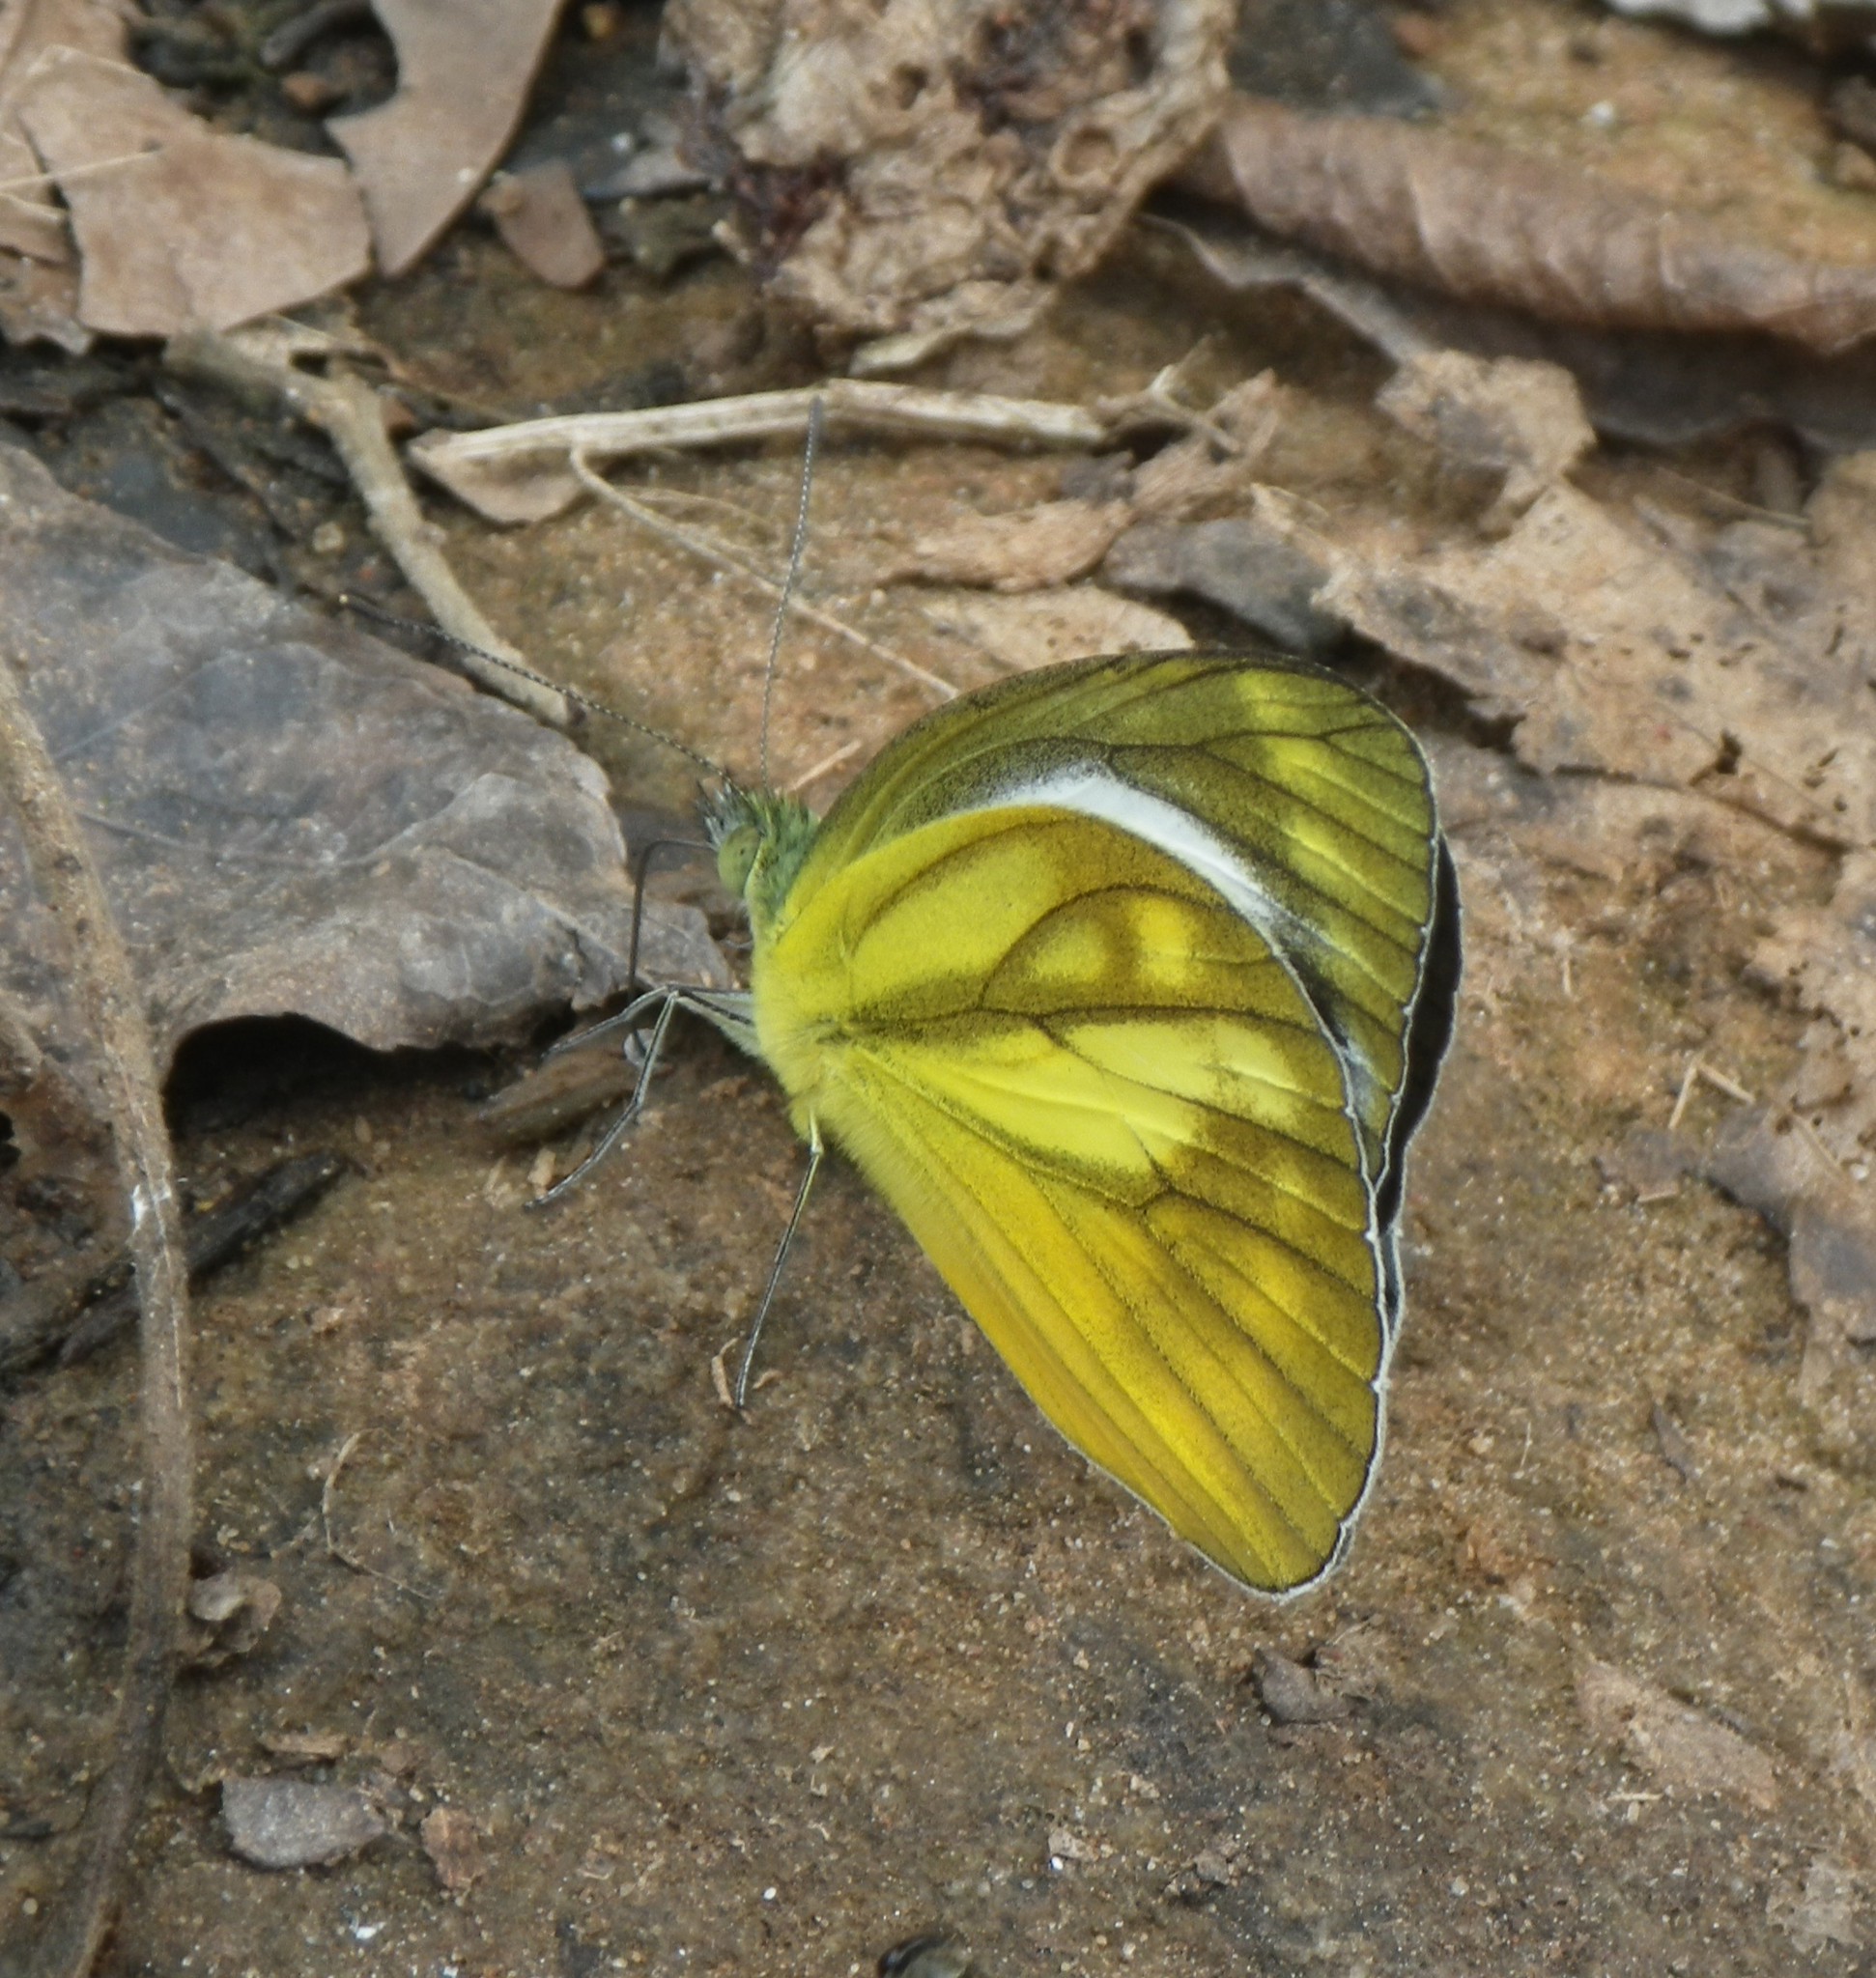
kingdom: Animalia
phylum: Arthropoda
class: Insecta
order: Lepidoptera
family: Pieridae
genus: Cepora
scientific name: Cepora nadina
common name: Lesser gull
